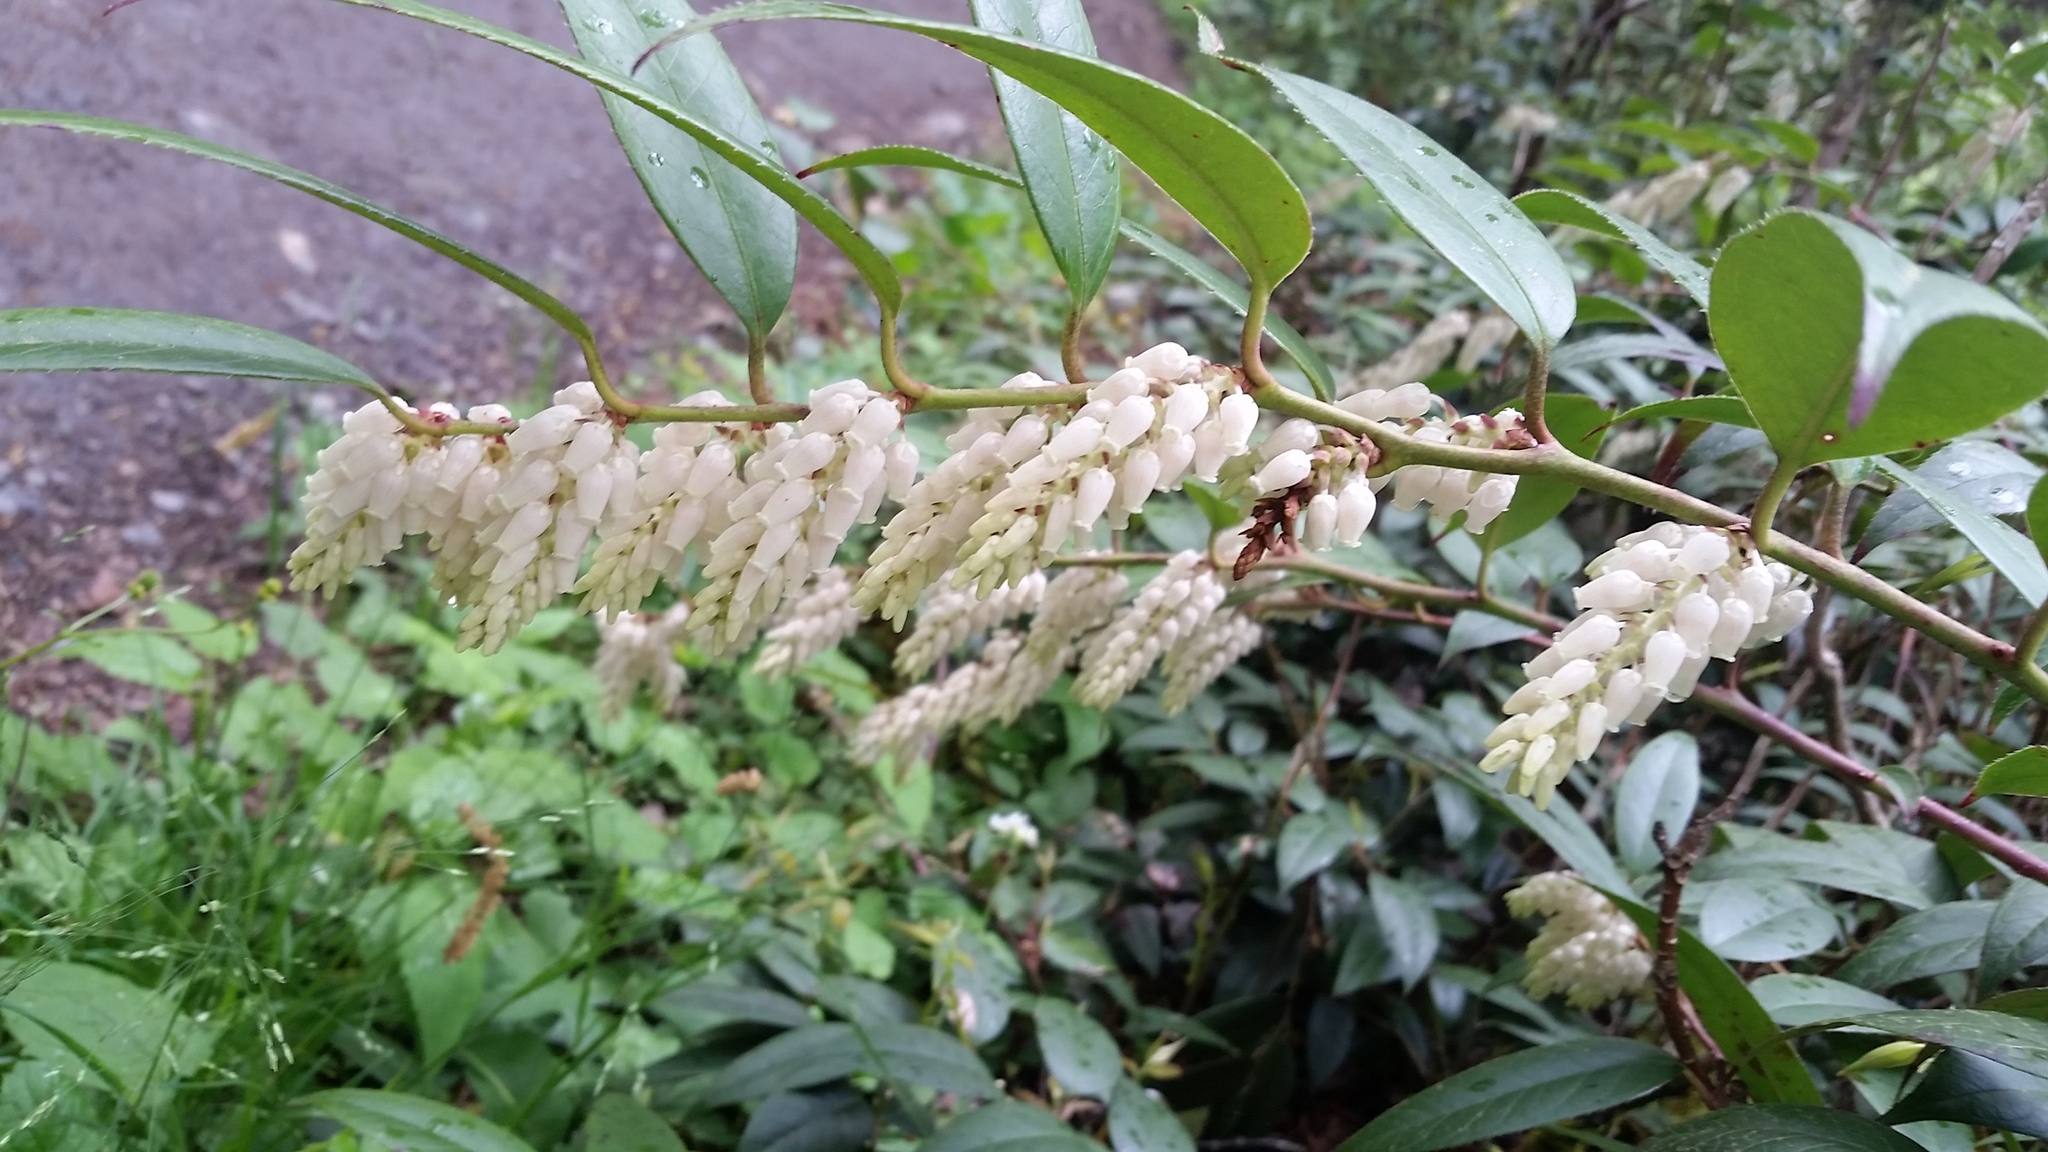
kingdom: Plantae
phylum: Tracheophyta
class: Magnoliopsida
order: Ericales
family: Ericaceae
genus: Leucothoe
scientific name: Leucothoe fontanesiana
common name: Fetterbush
